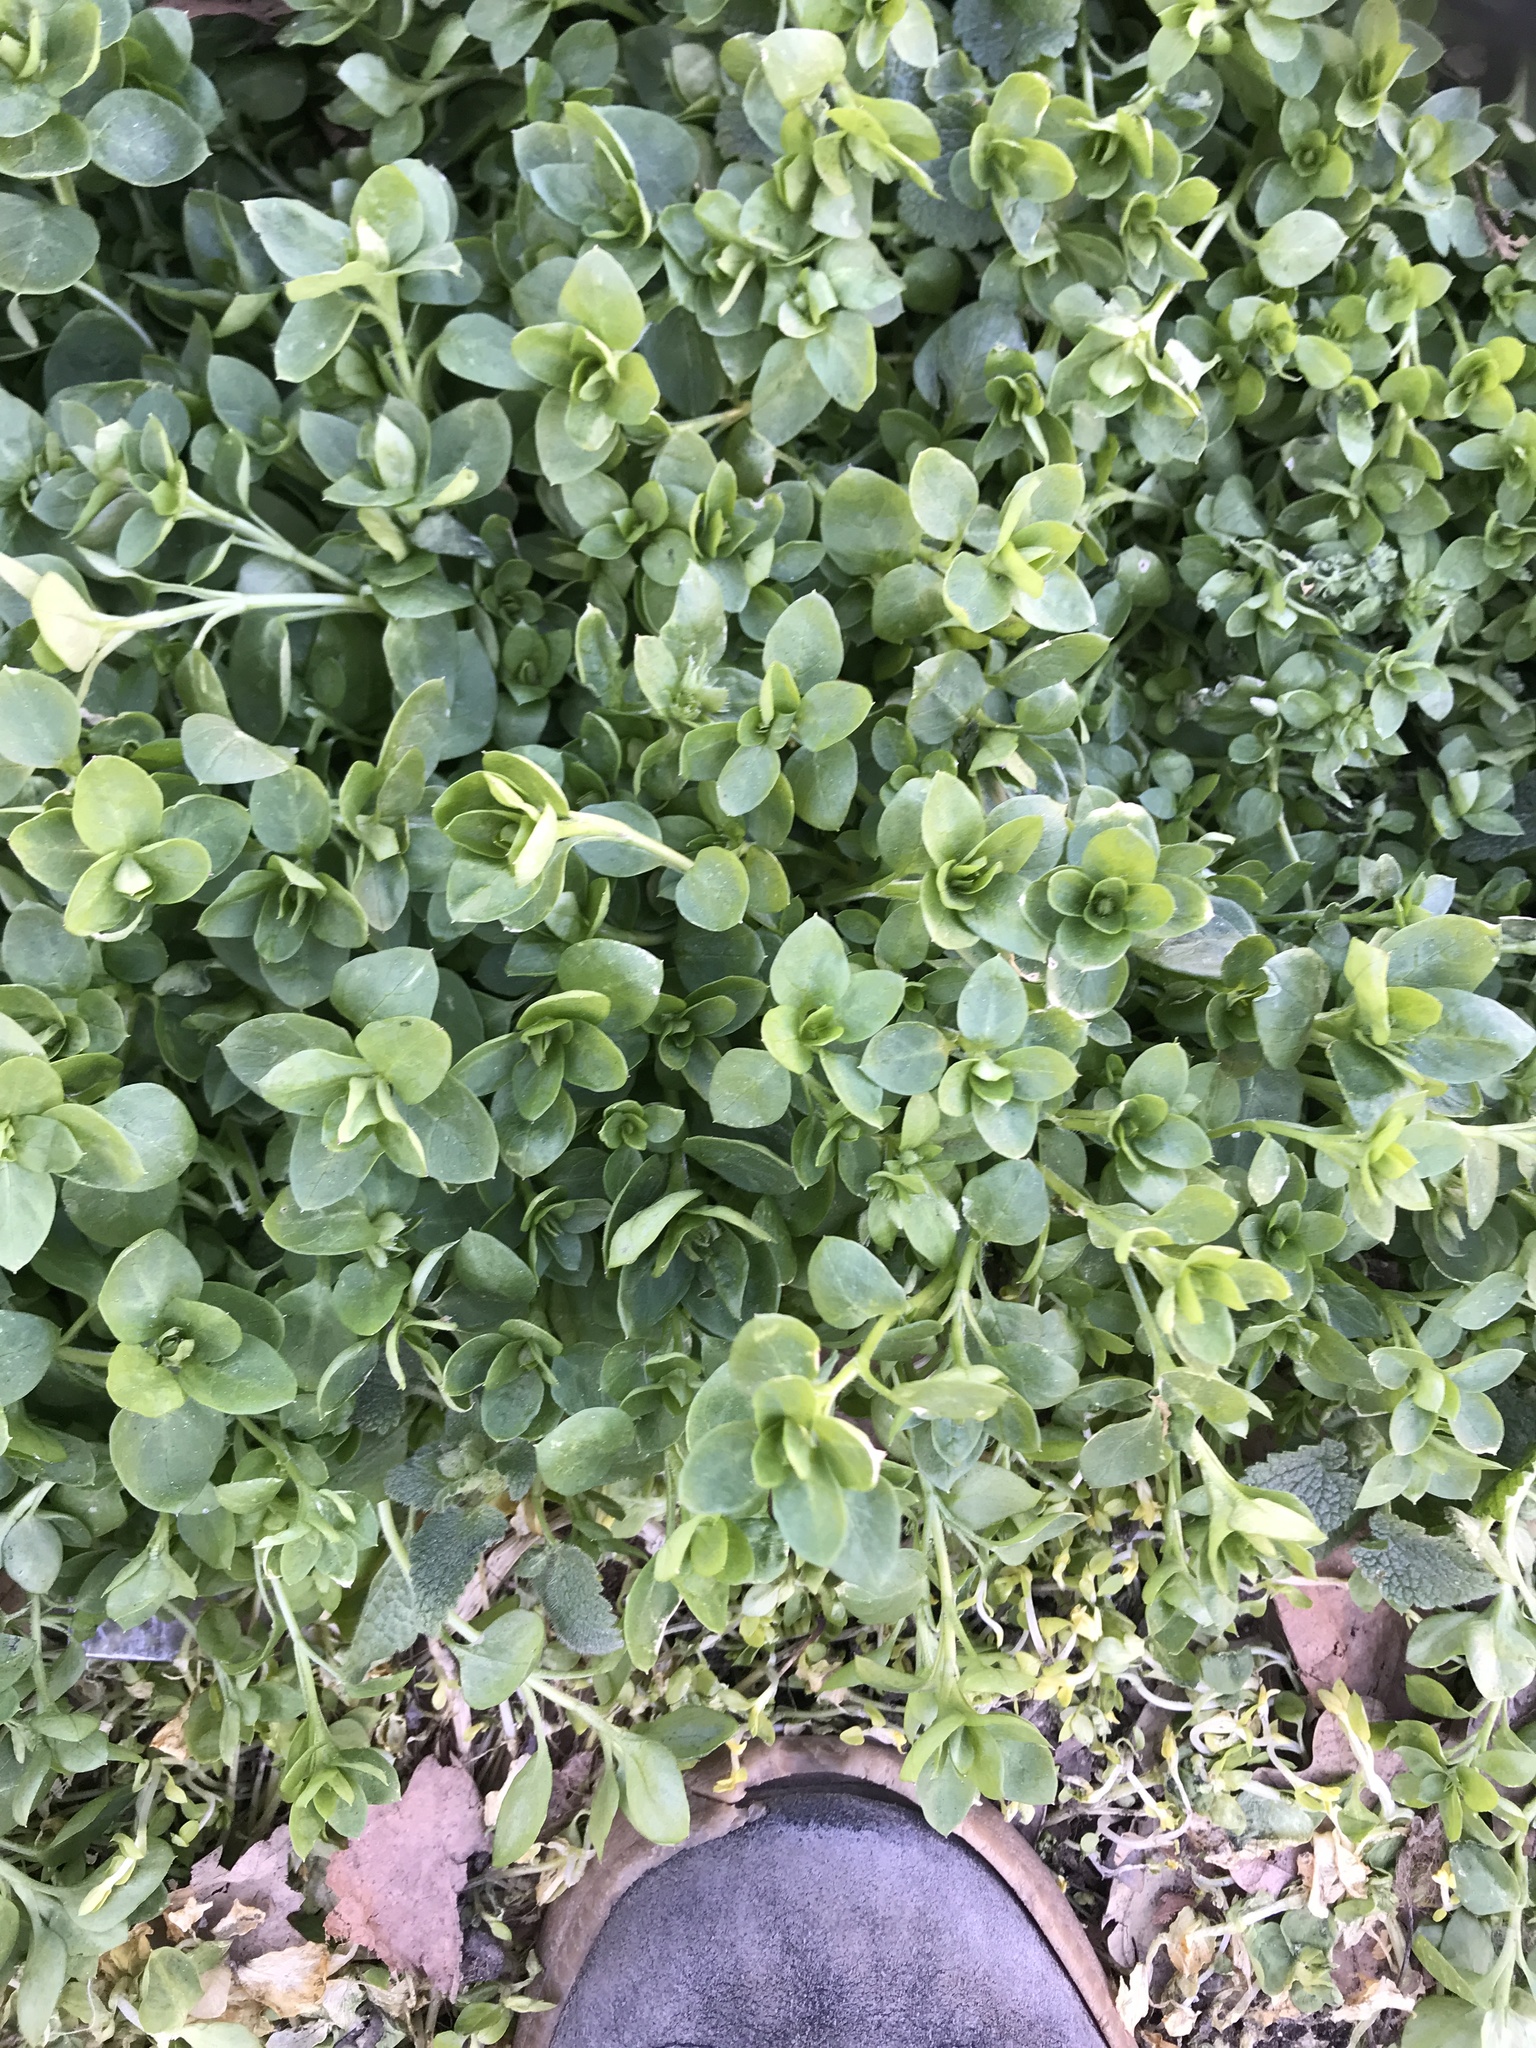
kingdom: Plantae
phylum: Tracheophyta
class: Magnoliopsida
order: Caryophyllales
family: Caryophyllaceae
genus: Stellaria
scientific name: Stellaria media
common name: Common chickweed
